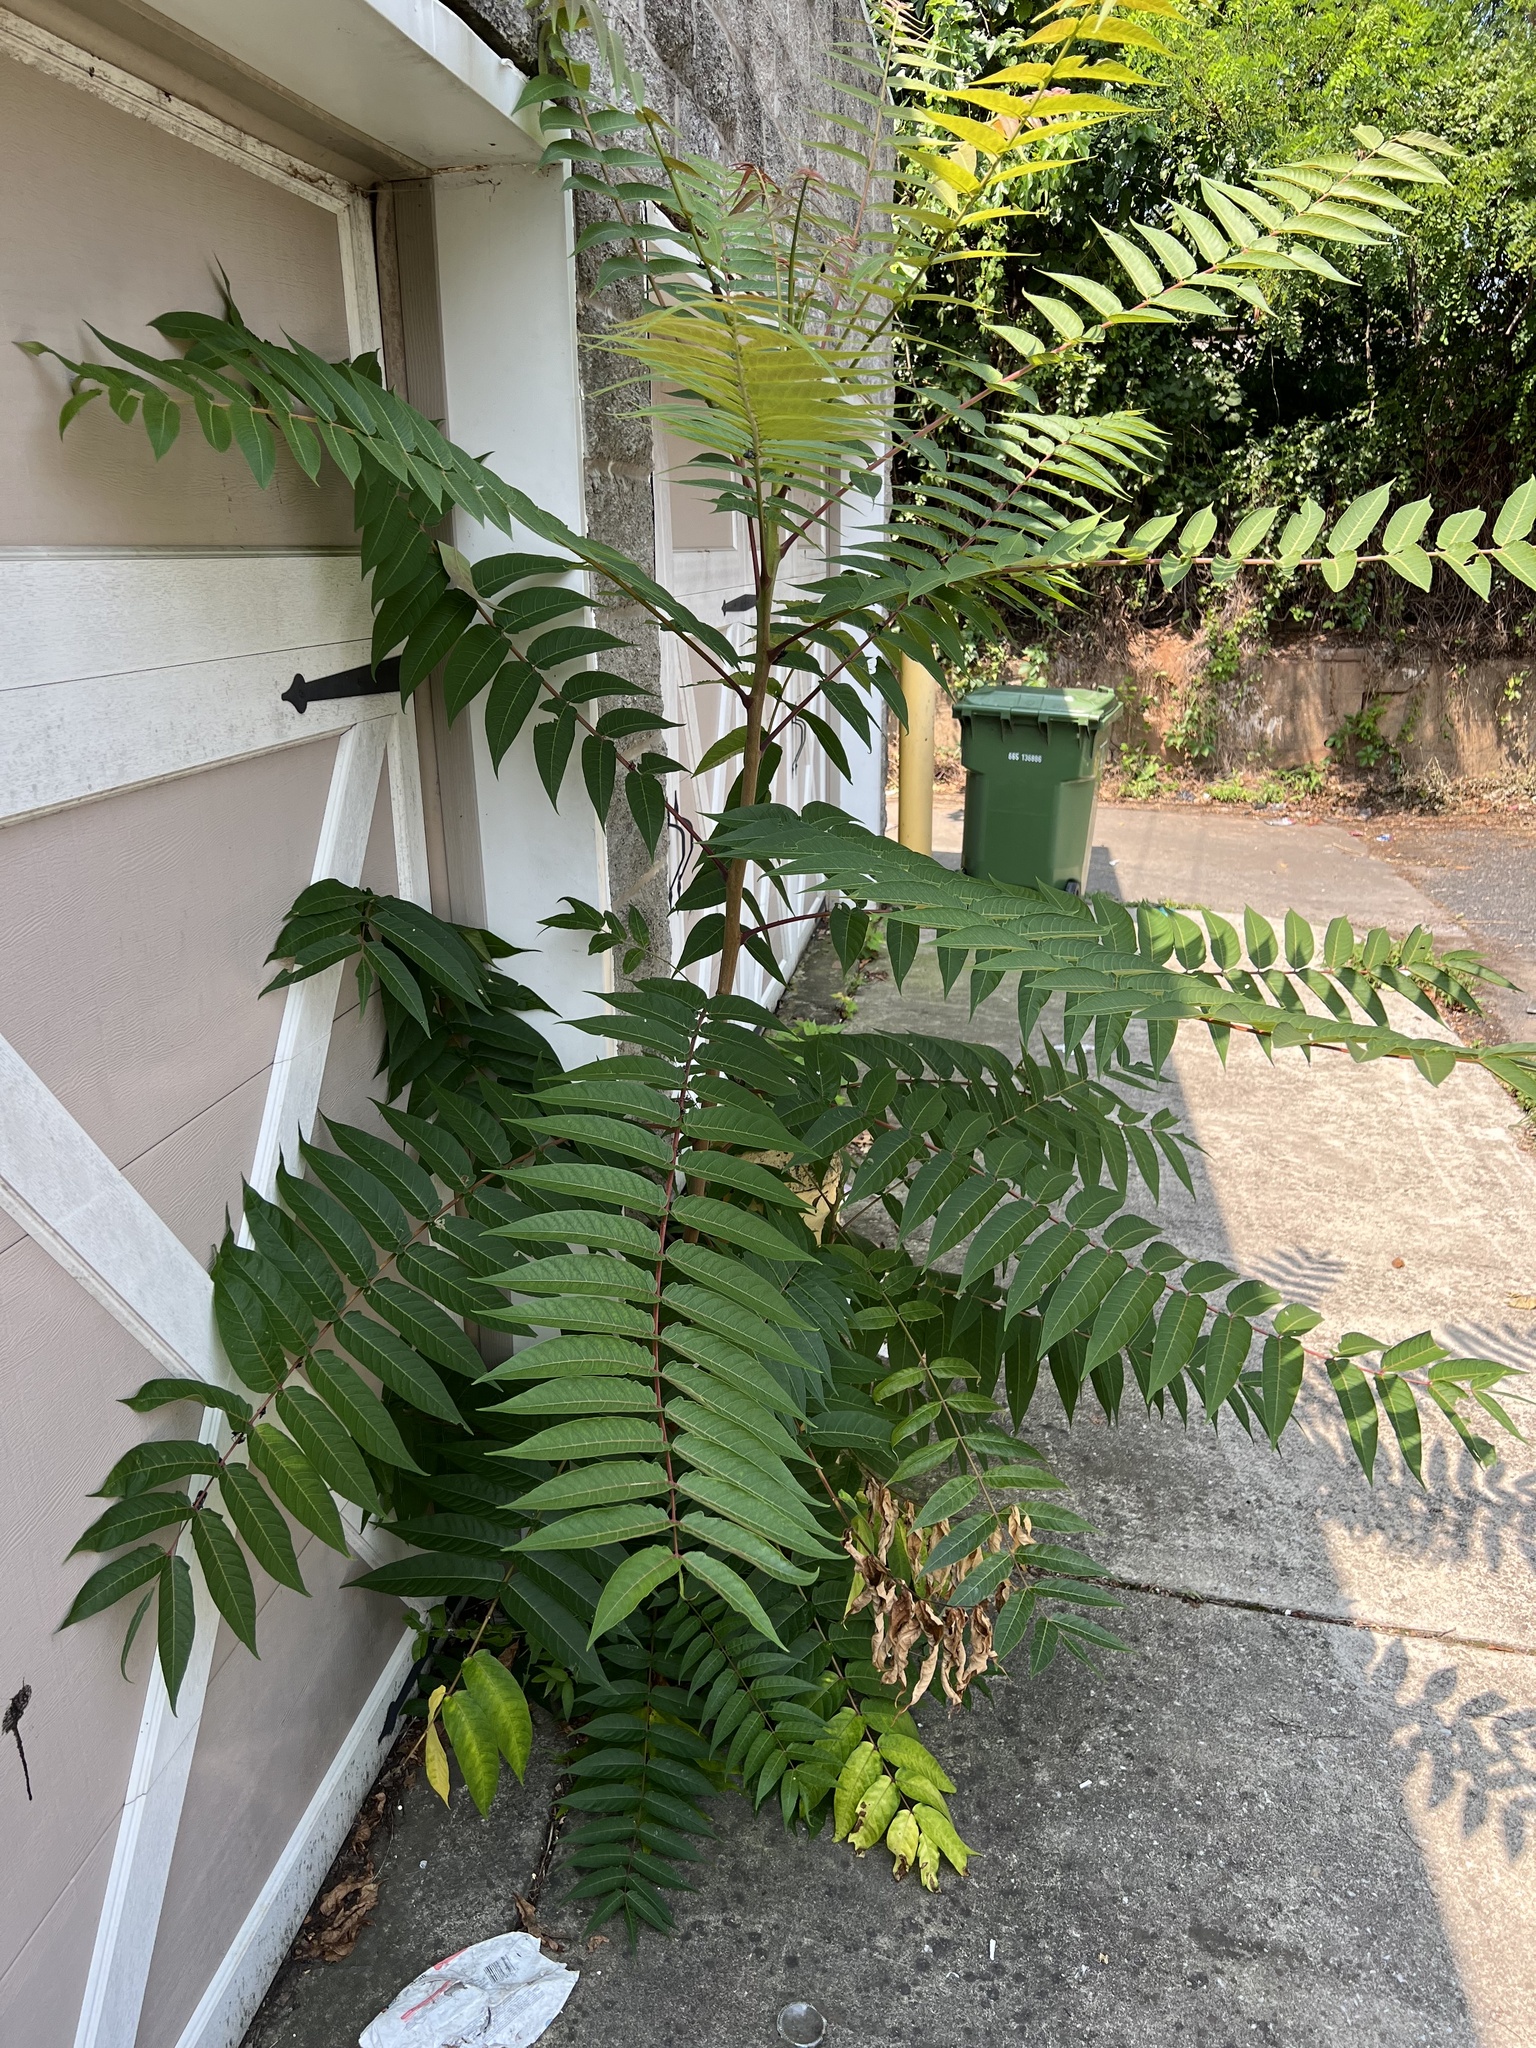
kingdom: Plantae
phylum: Tracheophyta
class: Magnoliopsida
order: Sapindales
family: Simaroubaceae
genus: Ailanthus
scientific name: Ailanthus altissima
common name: Tree-of-heaven
